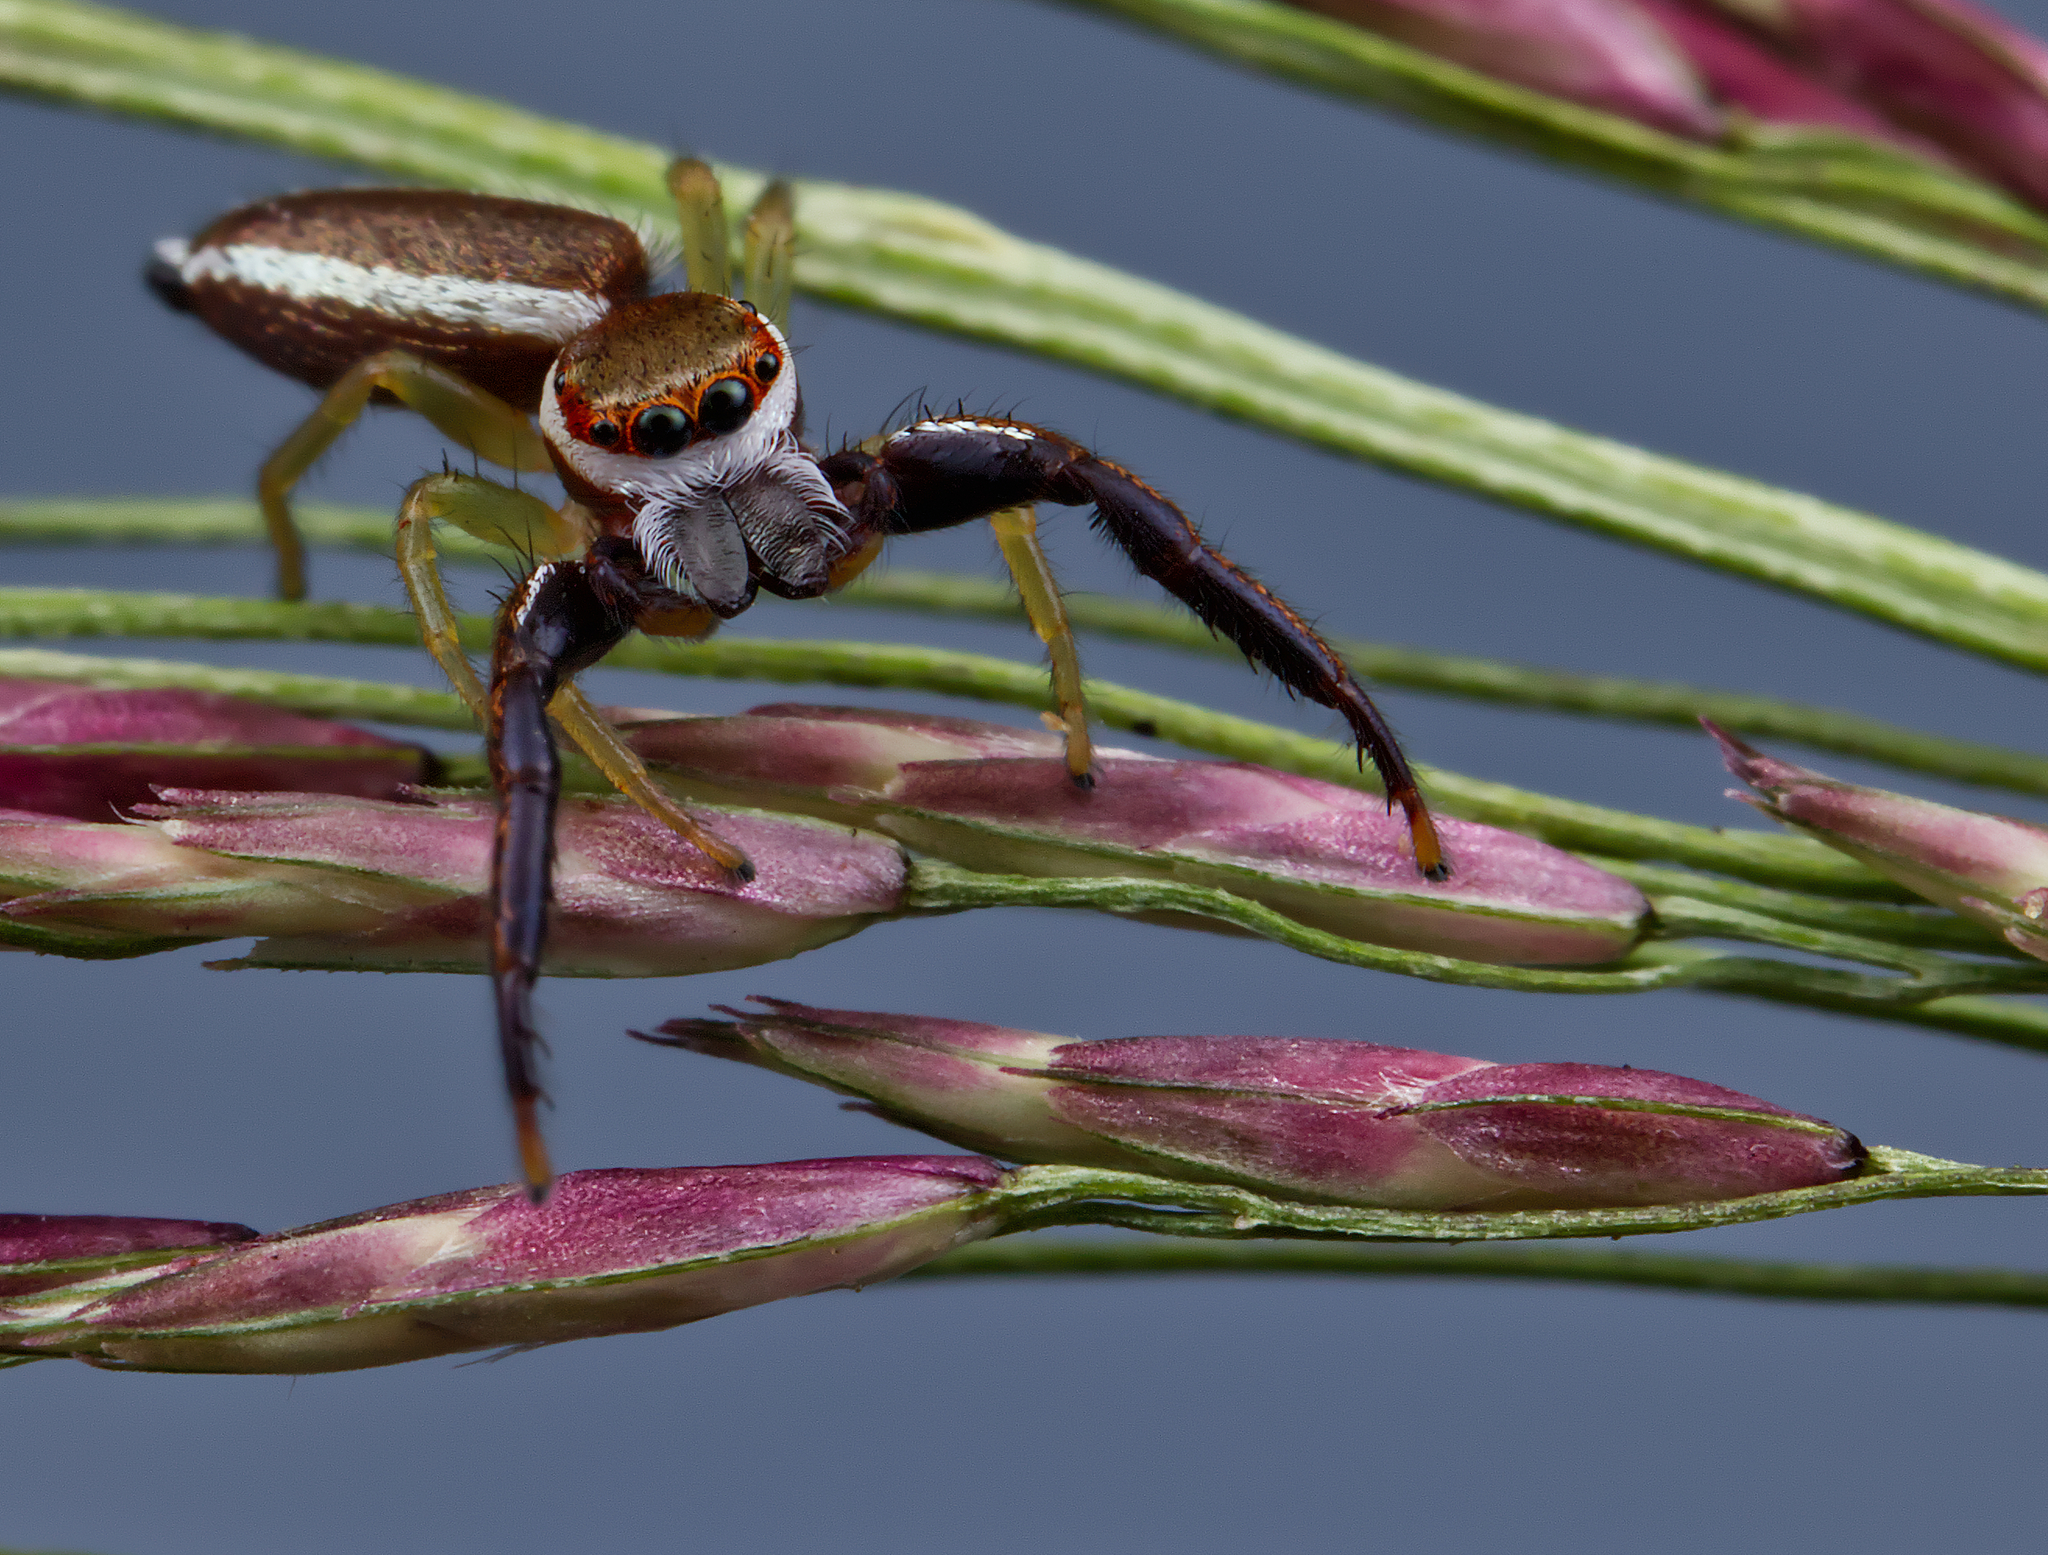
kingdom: Animalia
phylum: Arthropoda
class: Arachnida
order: Araneae
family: Salticidae
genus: Hentzia
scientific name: Hentzia palmarum
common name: Common hentz jumping spider
